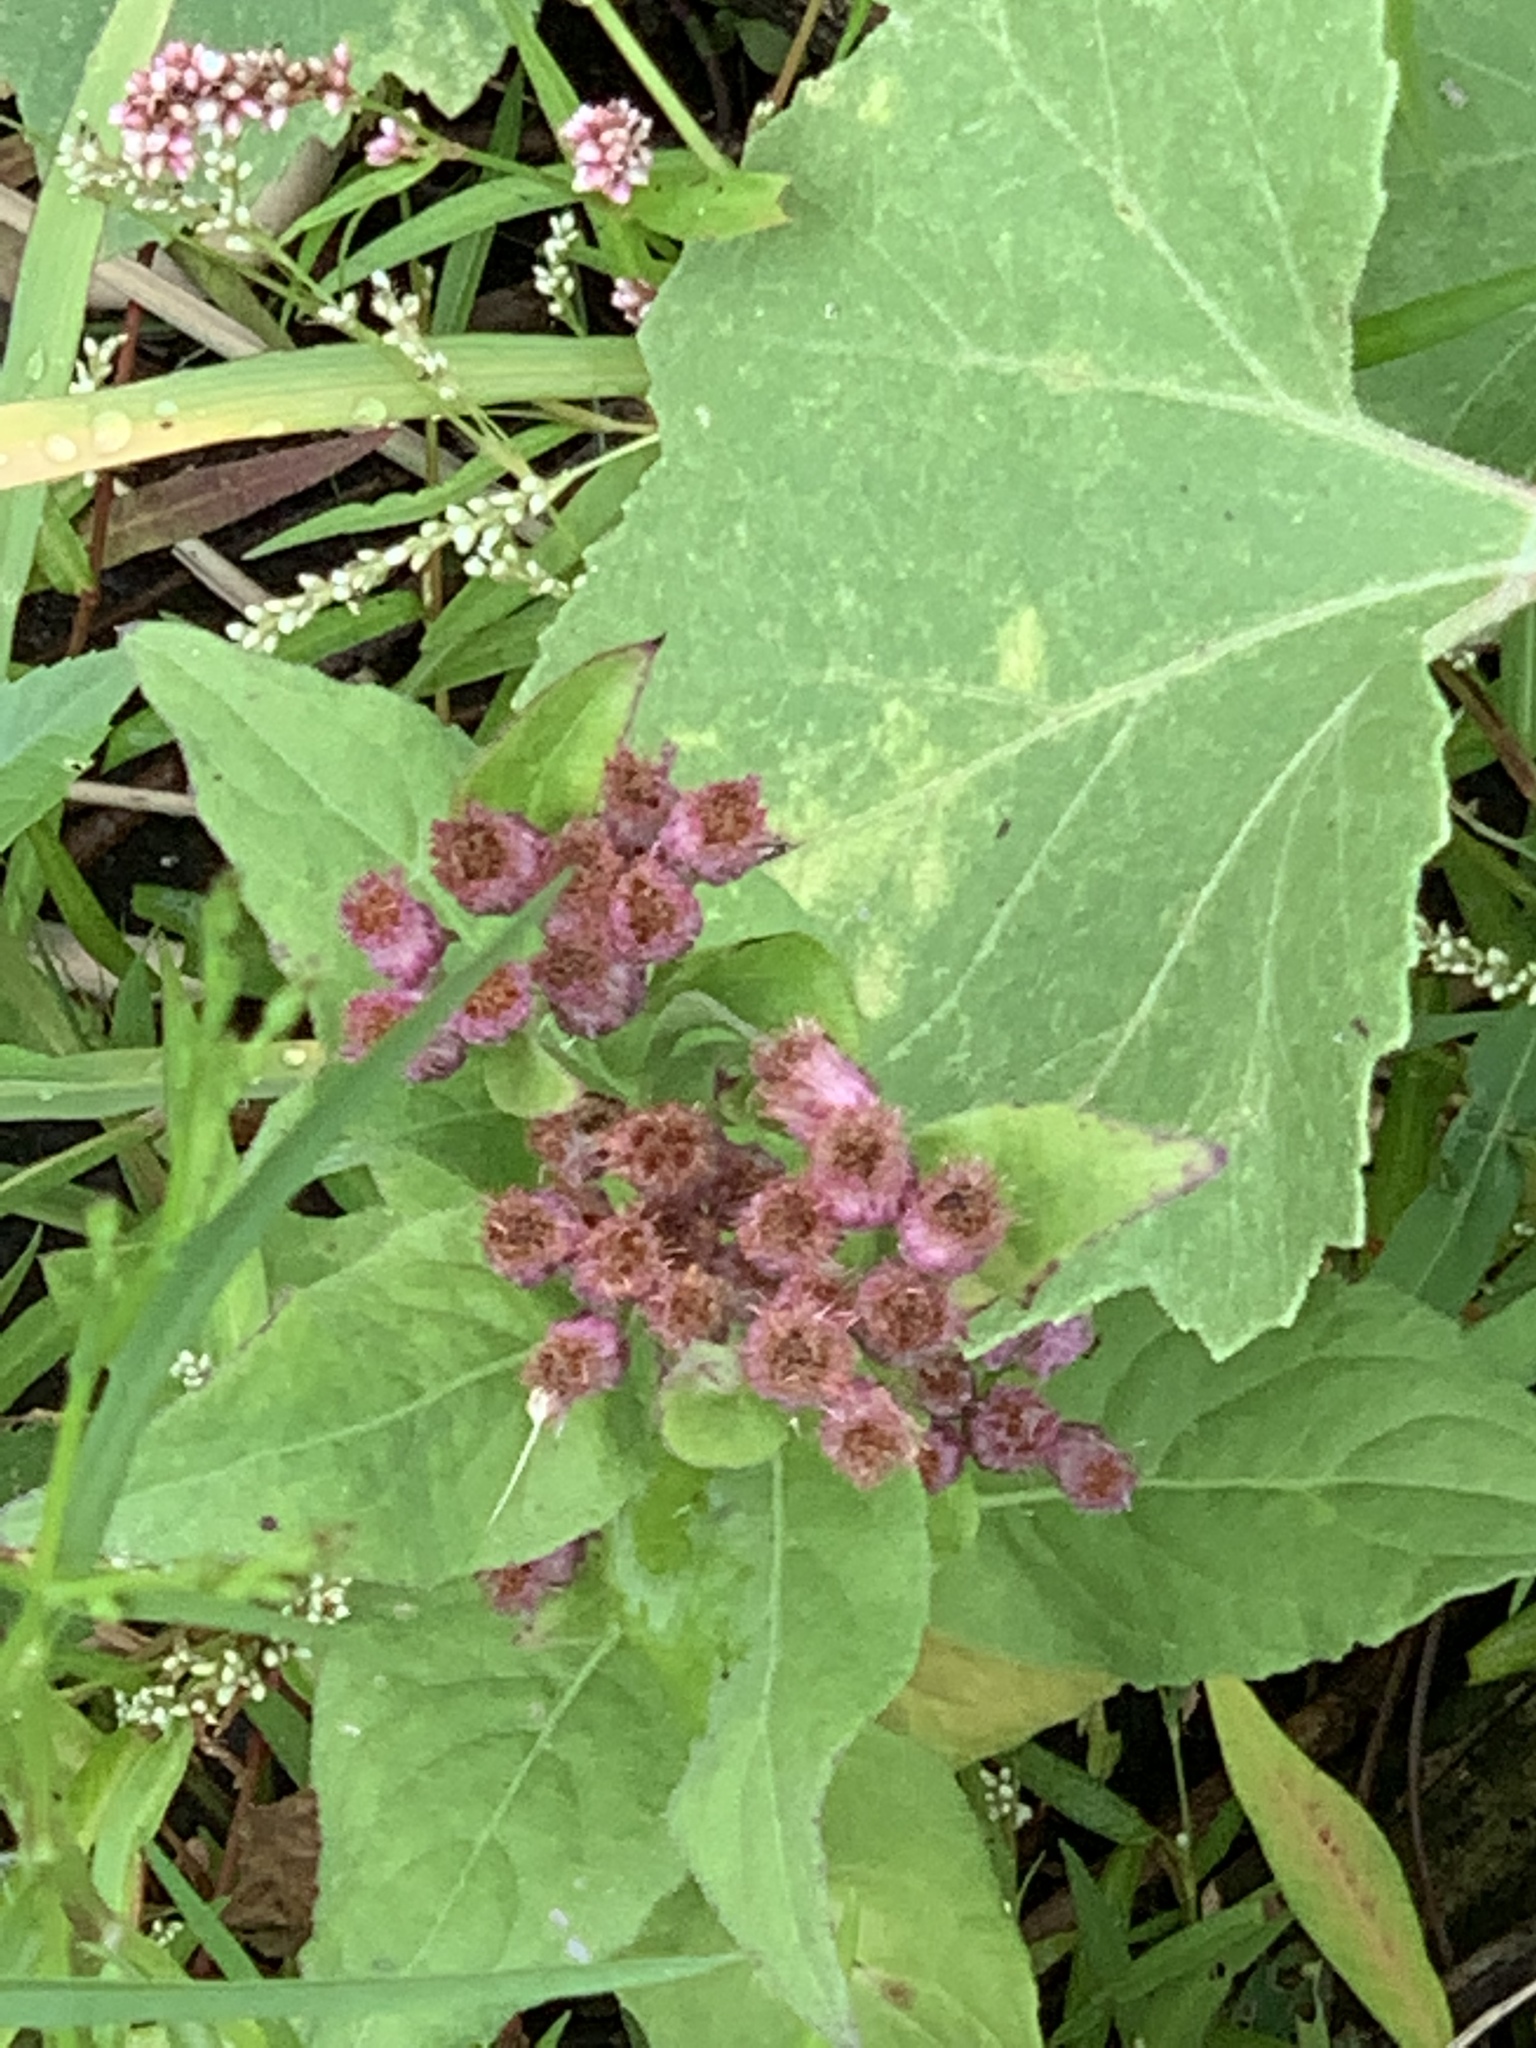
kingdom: Plantae
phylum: Tracheophyta
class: Magnoliopsida
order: Asterales
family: Asteraceae
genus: Pluchea
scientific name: Pluchea odorata
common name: Saltmarsh fleabane
